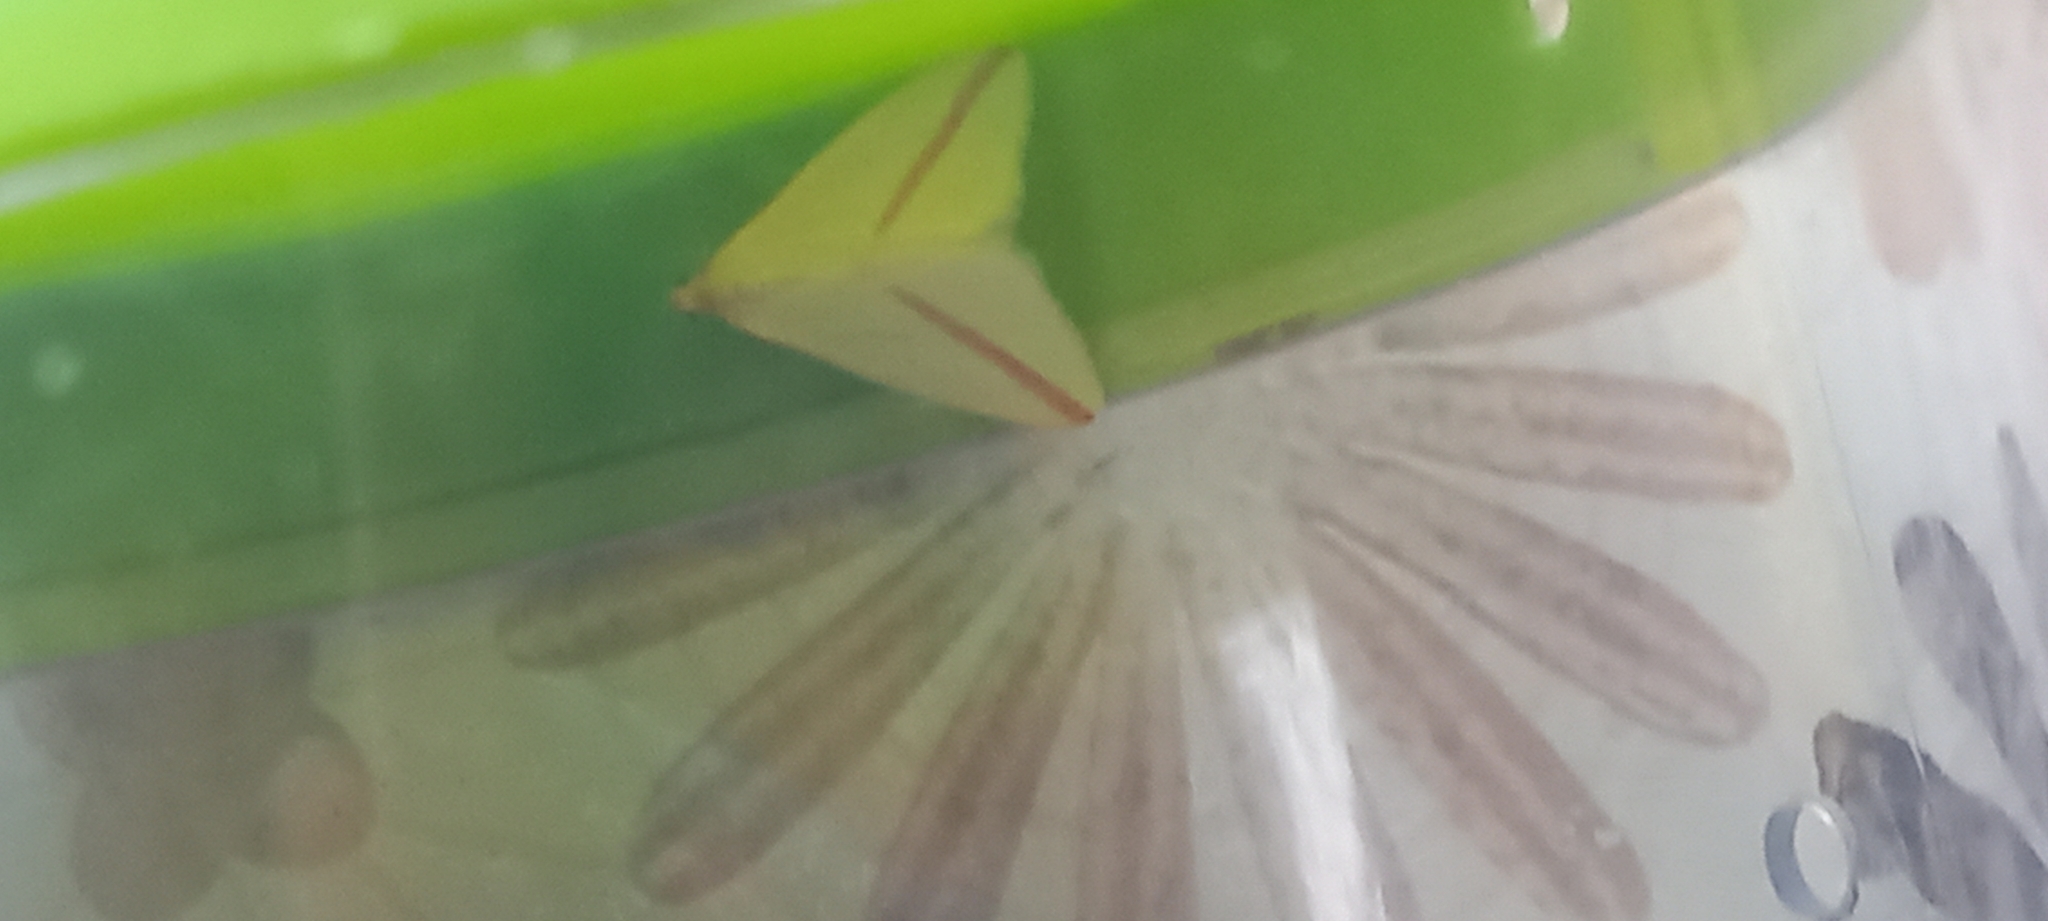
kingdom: Animalia
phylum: Arthropoda
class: Insecta
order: Lepidoptera
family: Geometridae
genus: Rhodometra
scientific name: Rhodometra sacraria
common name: Vestal
